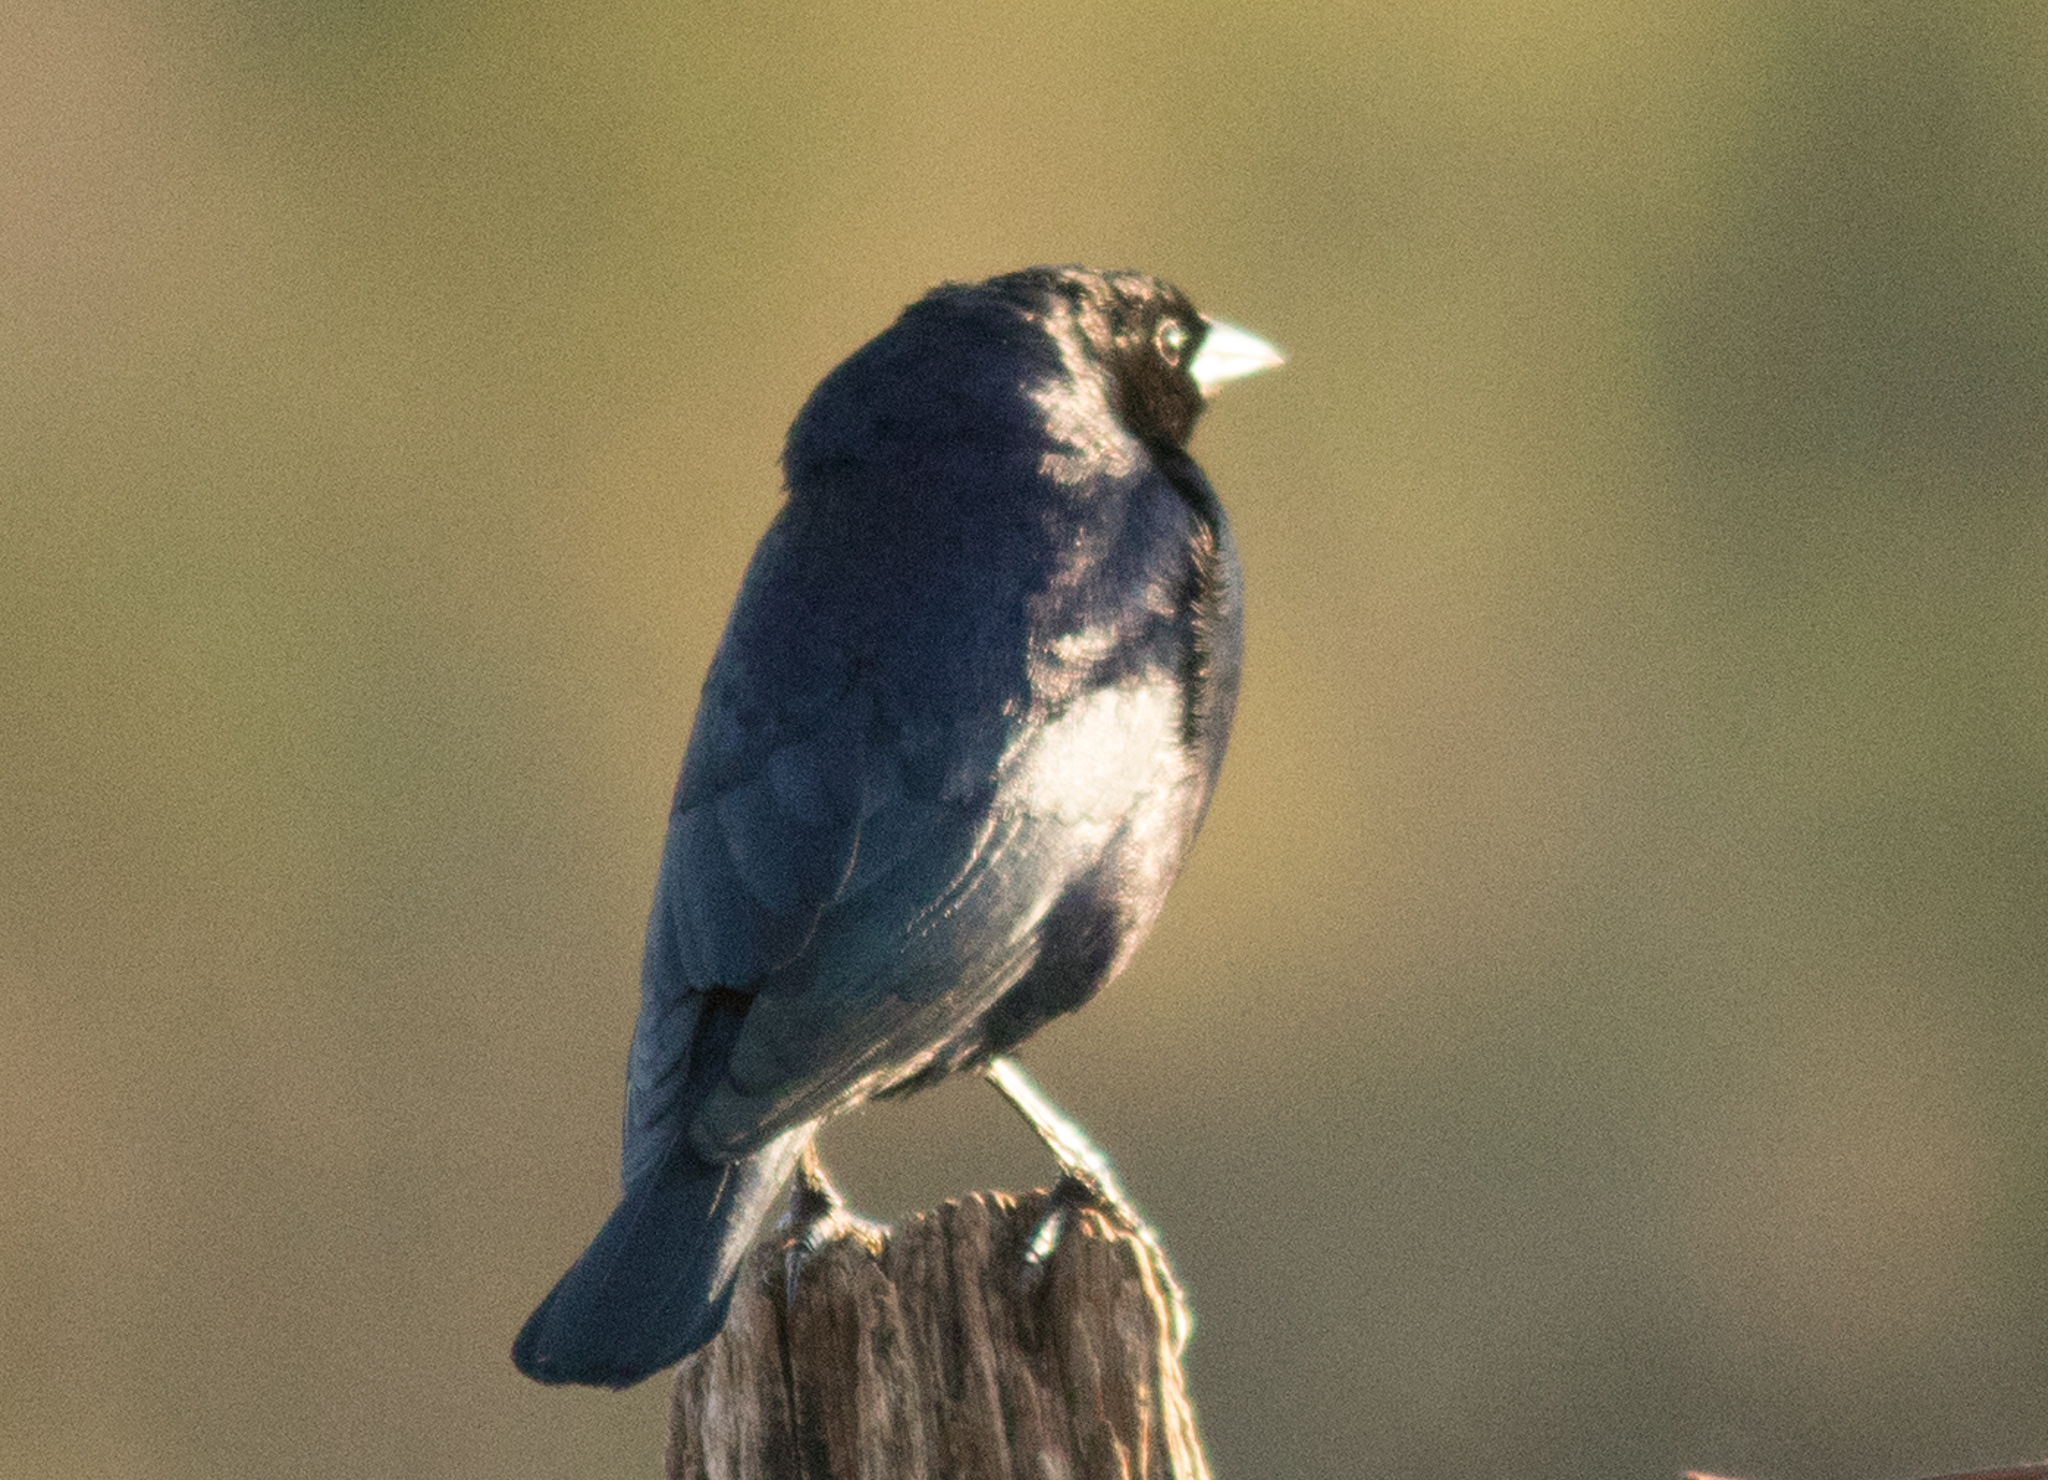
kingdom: Animalia
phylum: Chordata
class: Aves
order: Passeriformes
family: Icteridae
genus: Molothrus
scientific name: Molothrus bonariensis
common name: Shiny cowbird
